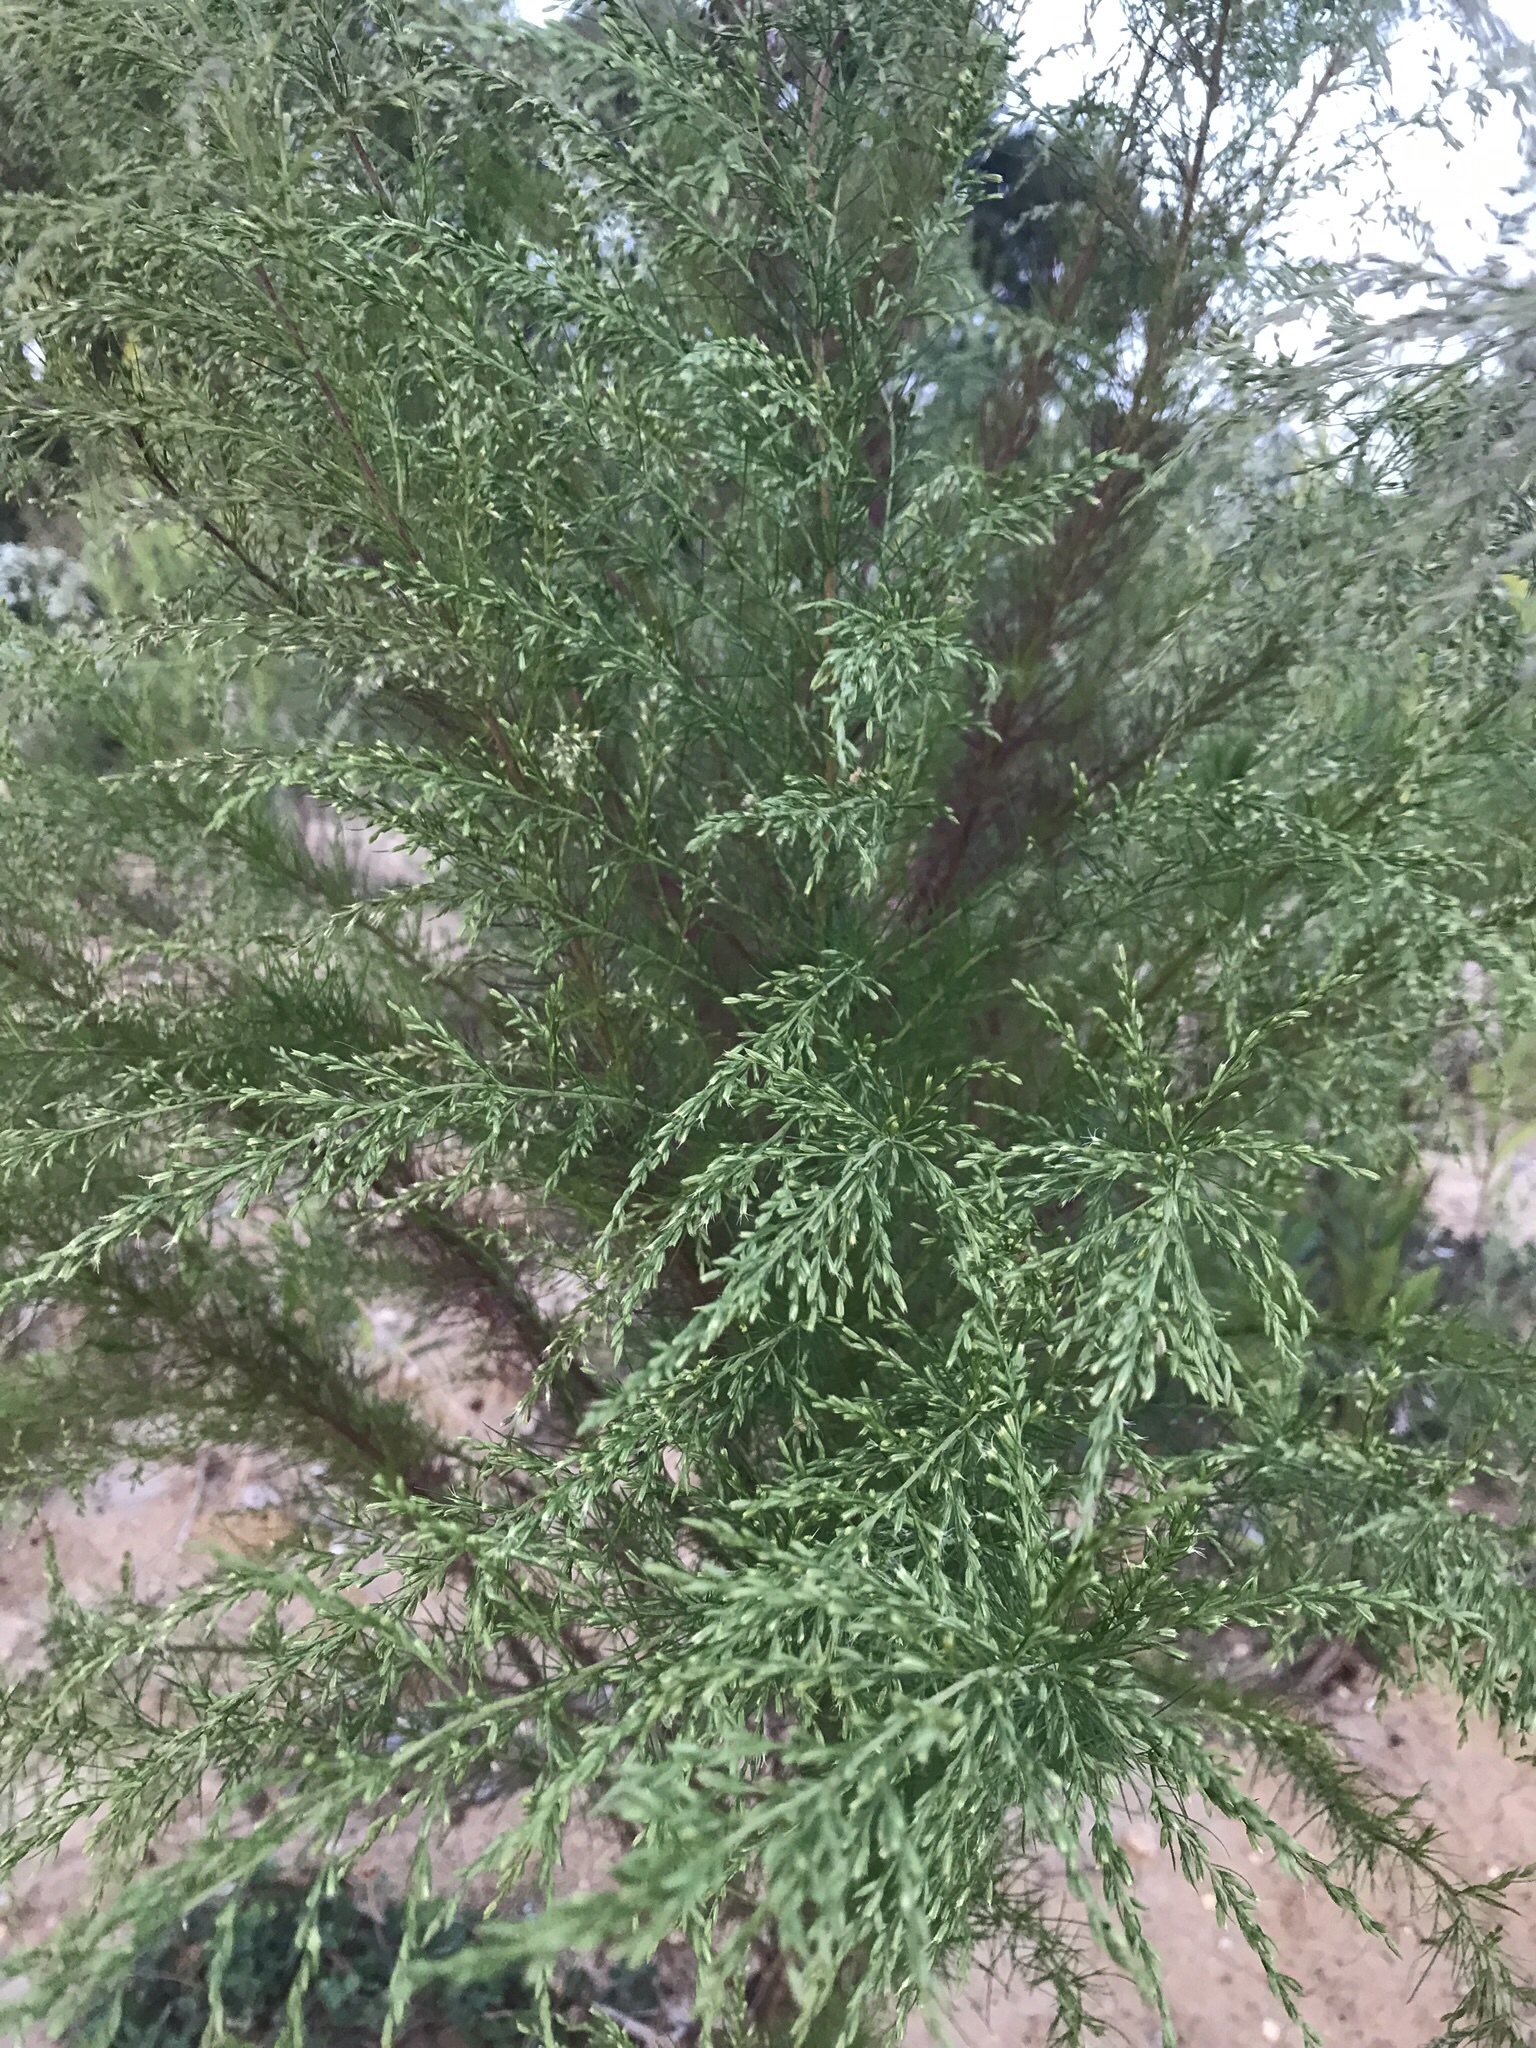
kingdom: Plantae
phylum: Tracheophyta
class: Magnoliopsida
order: Asterales
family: Asteraceae
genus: Eupatorium
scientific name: Eupatorium capillifolium
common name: Dog-fennel
